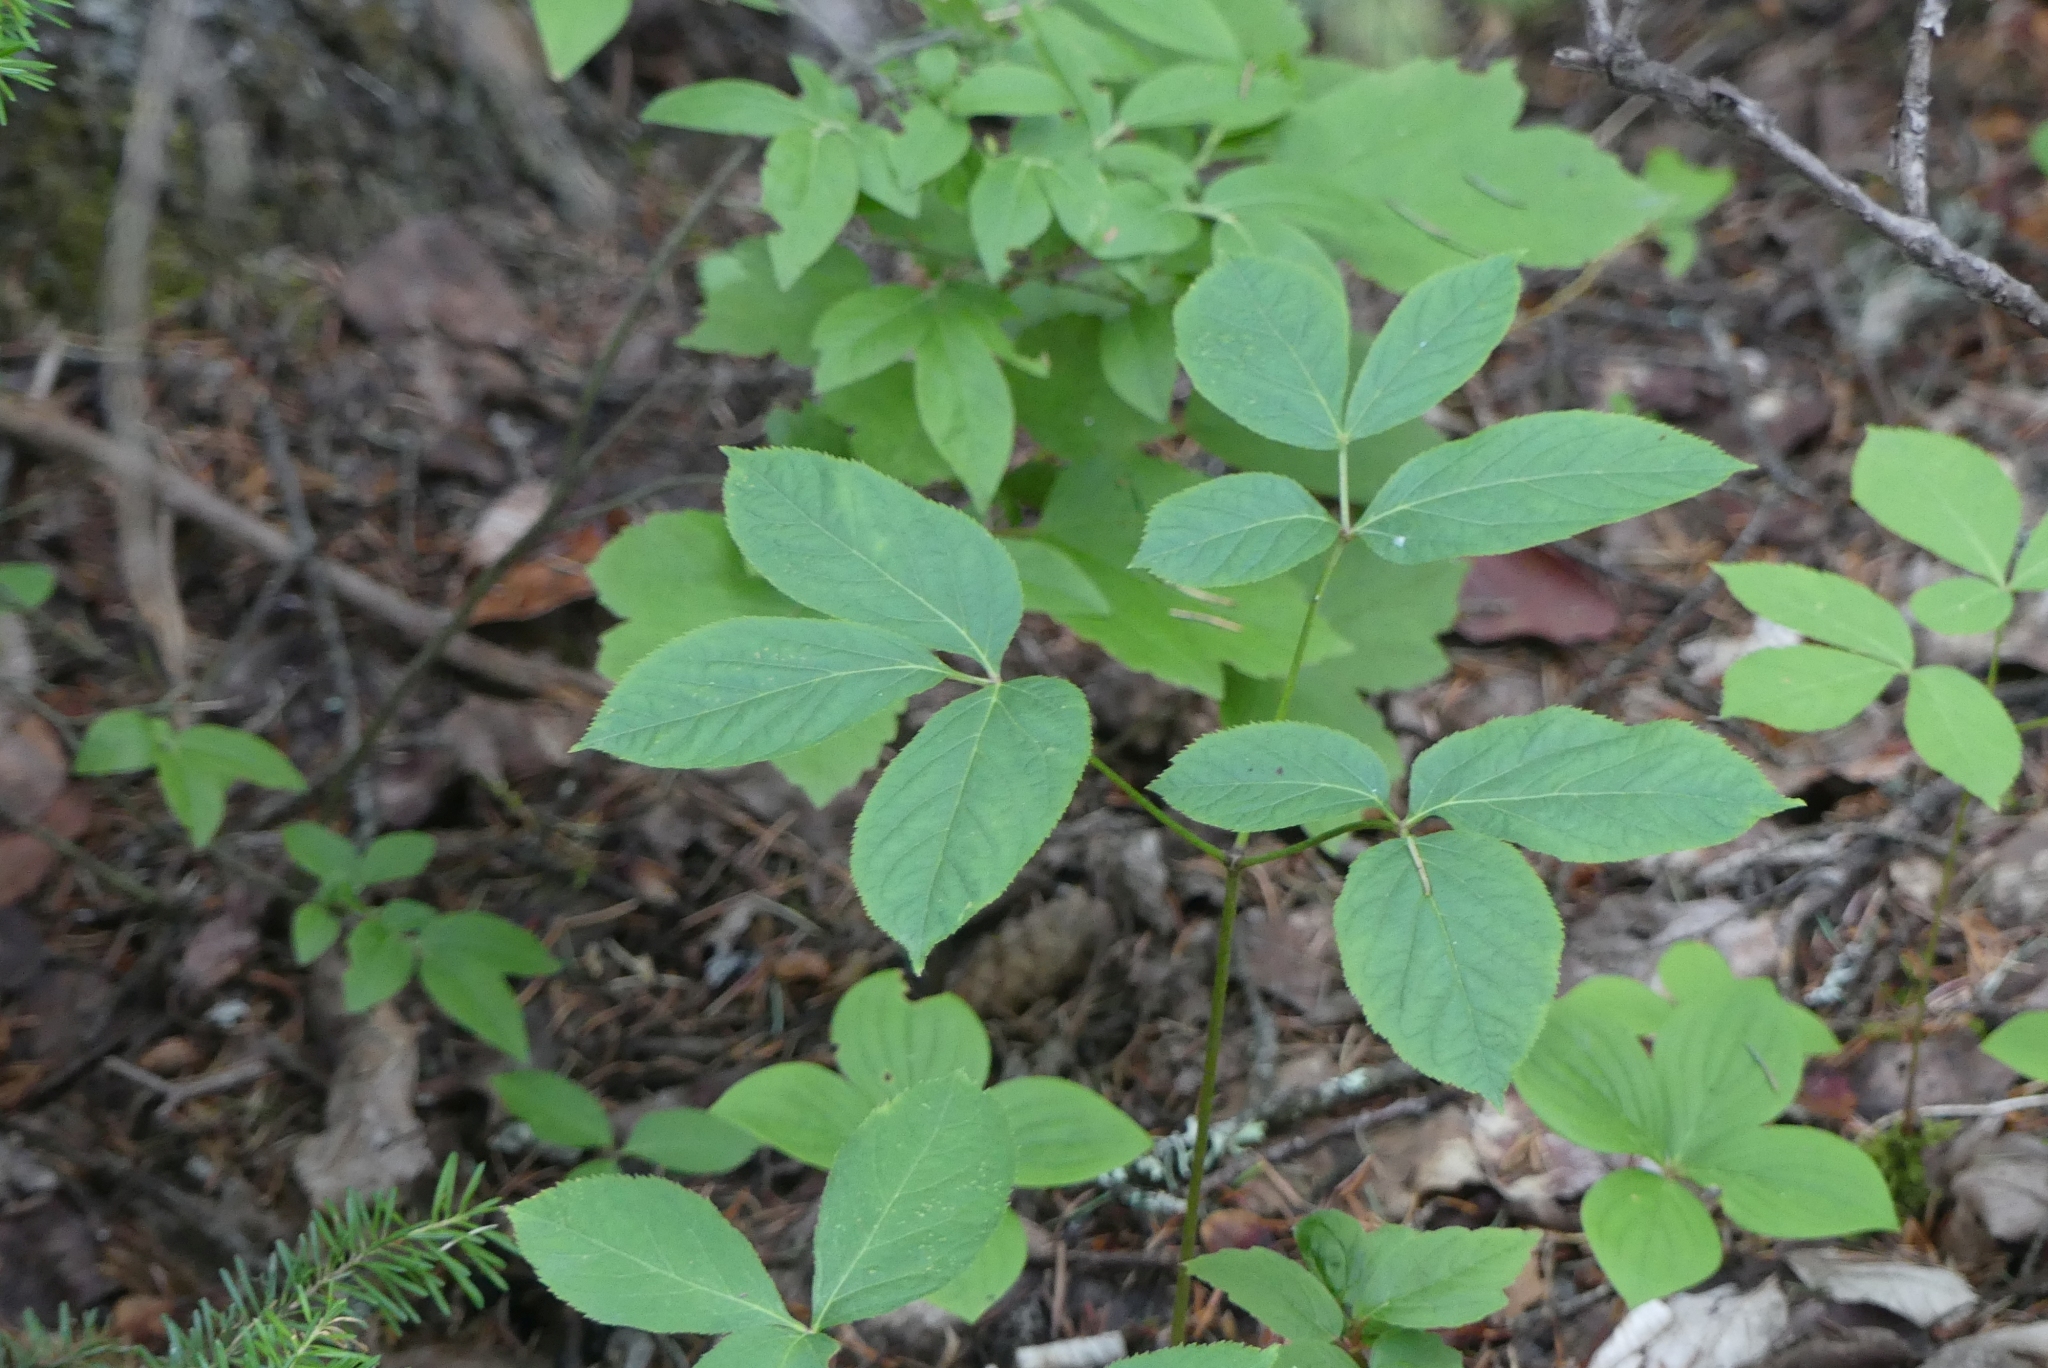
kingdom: Plantae
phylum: Tracheophyta
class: Magnoliopsida
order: Apiales
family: Araliaceae
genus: Aralia
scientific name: Aralia nudicaulis
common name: Wild sarsaparilla
